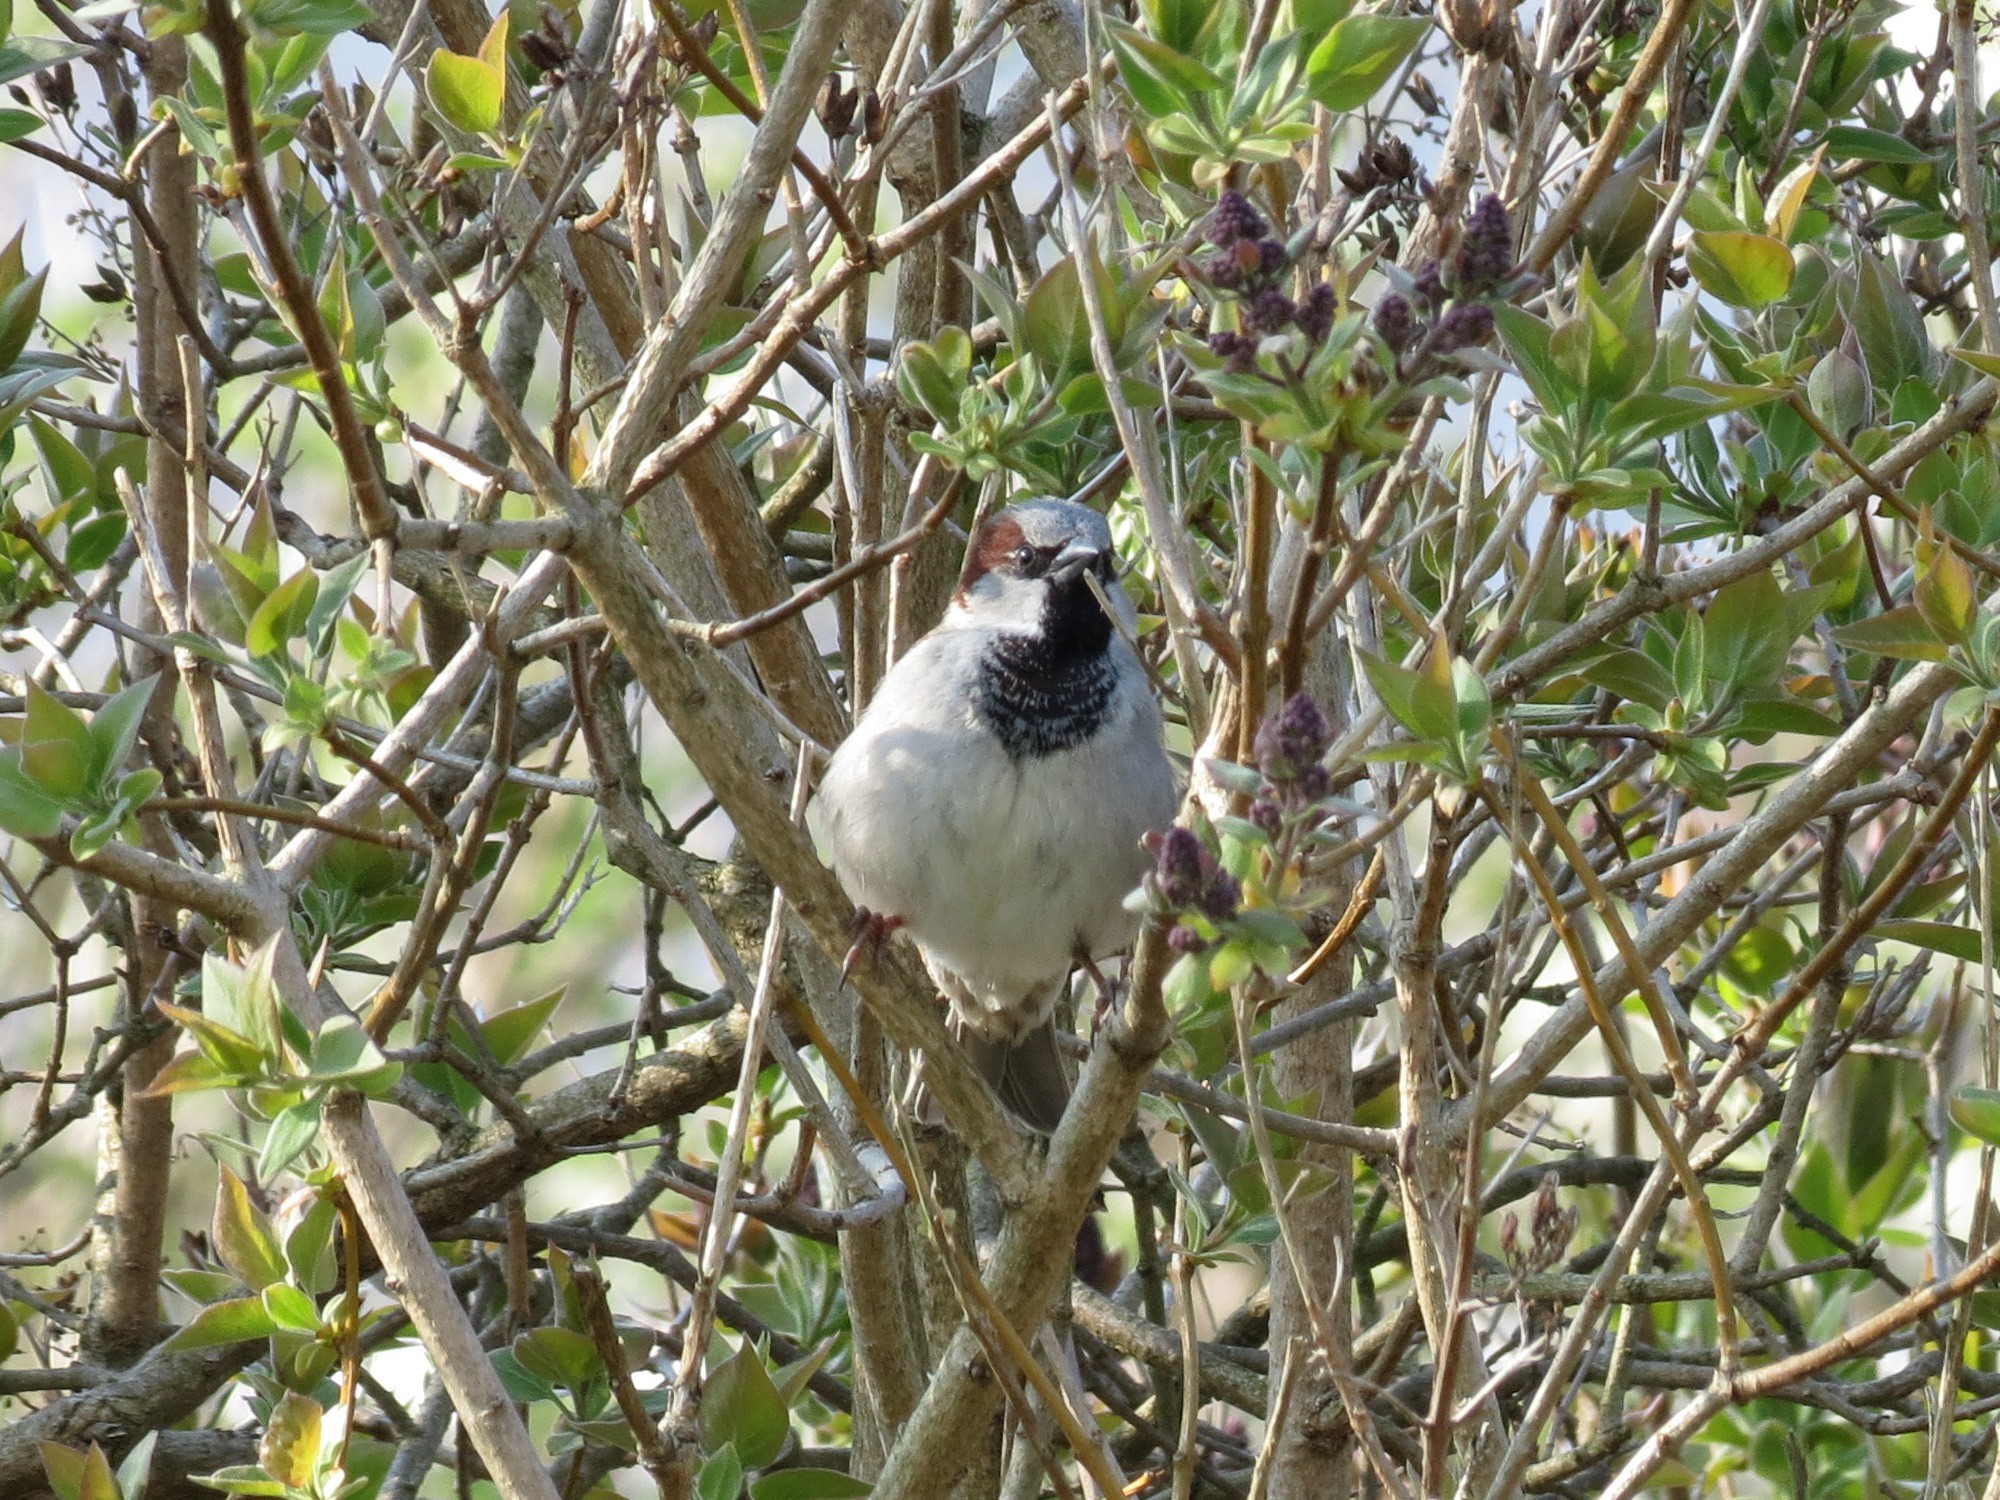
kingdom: Animalia
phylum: Chordata
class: Aves
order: Passeriformes
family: Passeridae
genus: Passer
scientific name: Passer domesticus
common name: House sparrow
